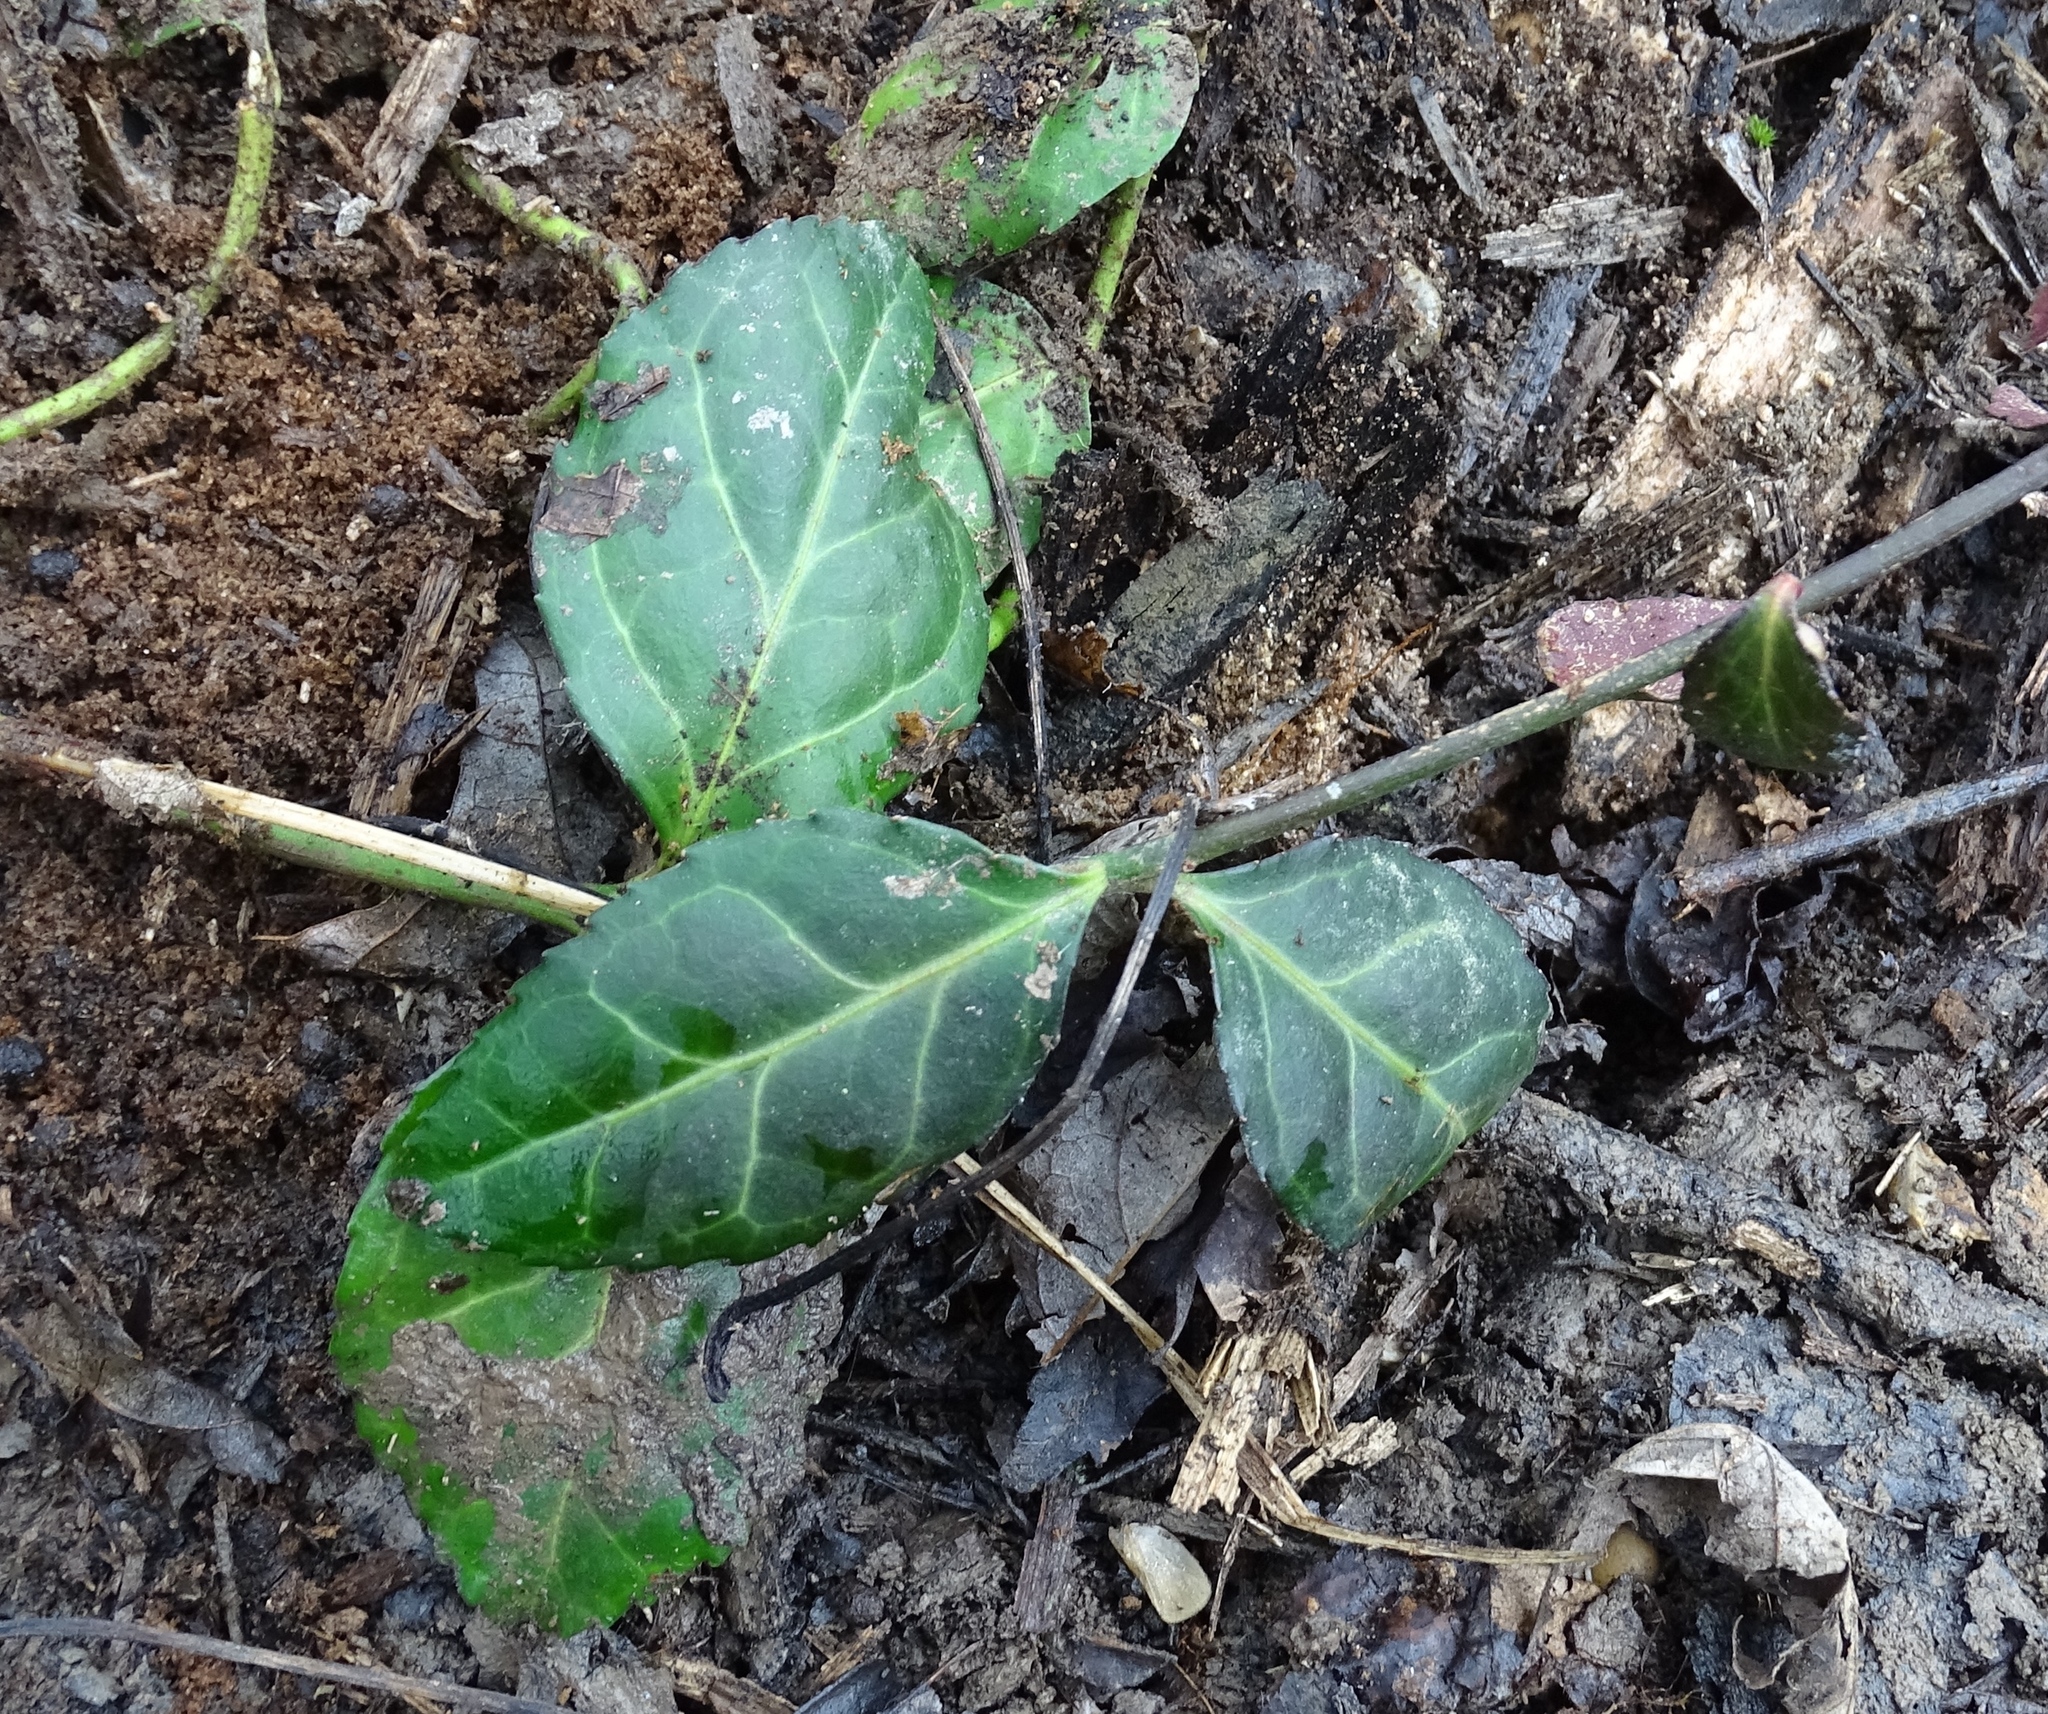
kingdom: Plantae
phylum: Tracheophyta
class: Magnoliopsida
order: Celastrales
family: Celastraceae
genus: Euonymus
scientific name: Euonymus fortunei
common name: Climbing euonymus
